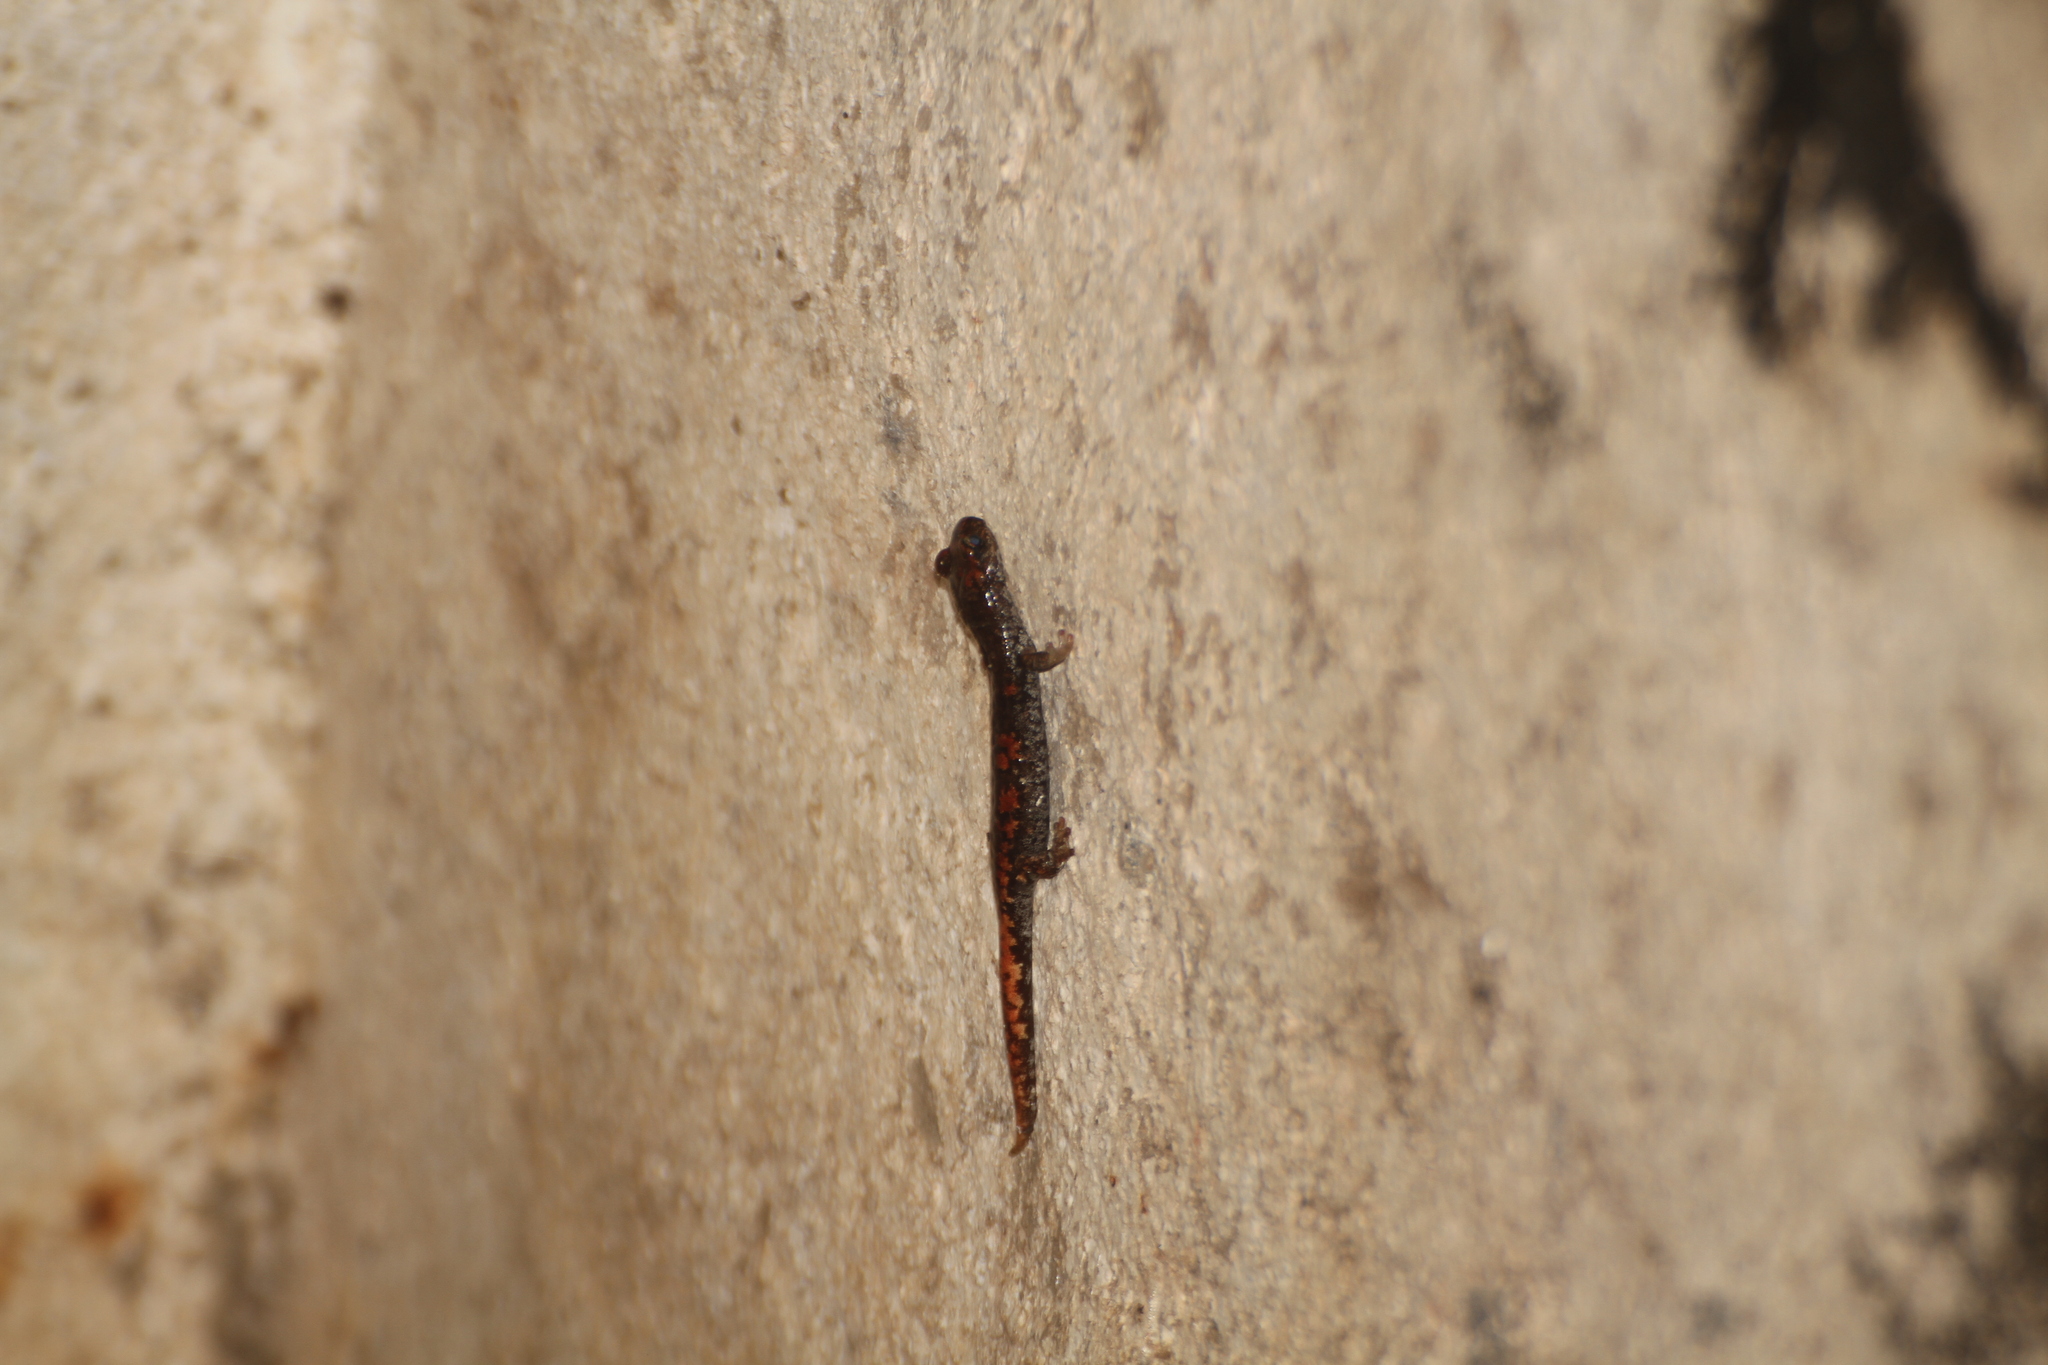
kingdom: Animalia
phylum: Chordata
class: Amphibia
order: Caudata
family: Plethodontidae
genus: Speleomantes
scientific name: Speleomantes strinatii
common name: French cave salamander
